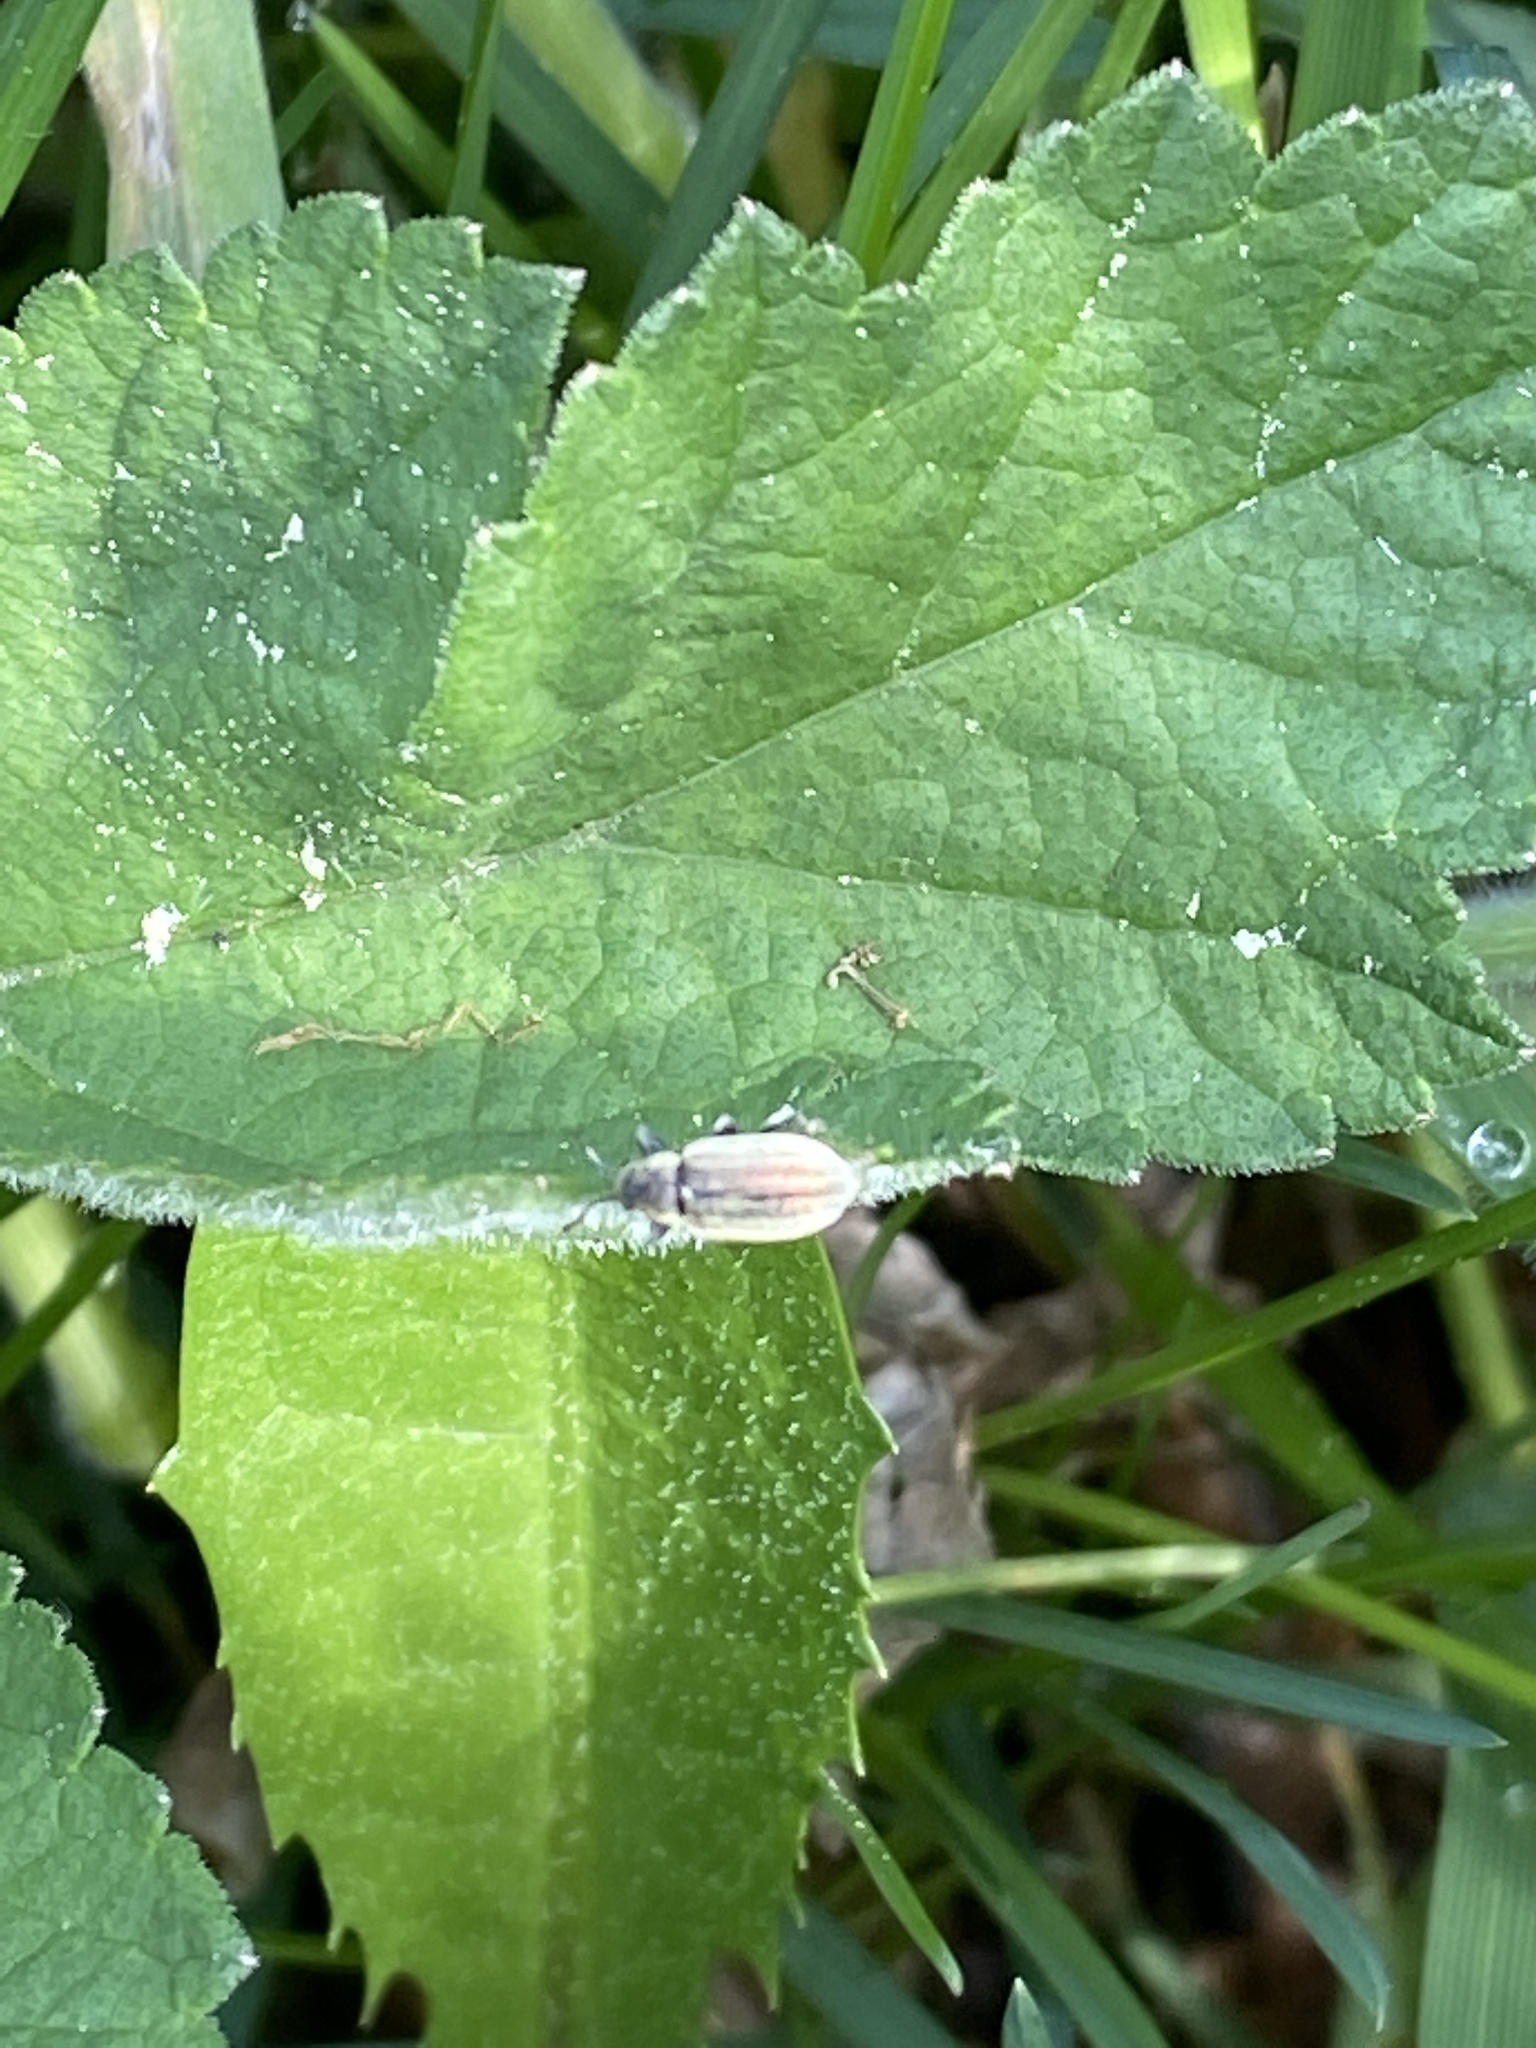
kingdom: Animalia
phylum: Arthropoda
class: Insecta
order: Coleoptera
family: Curculionidae
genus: Phyllobius
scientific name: Phyllobius pyri
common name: Common leaf weevil
